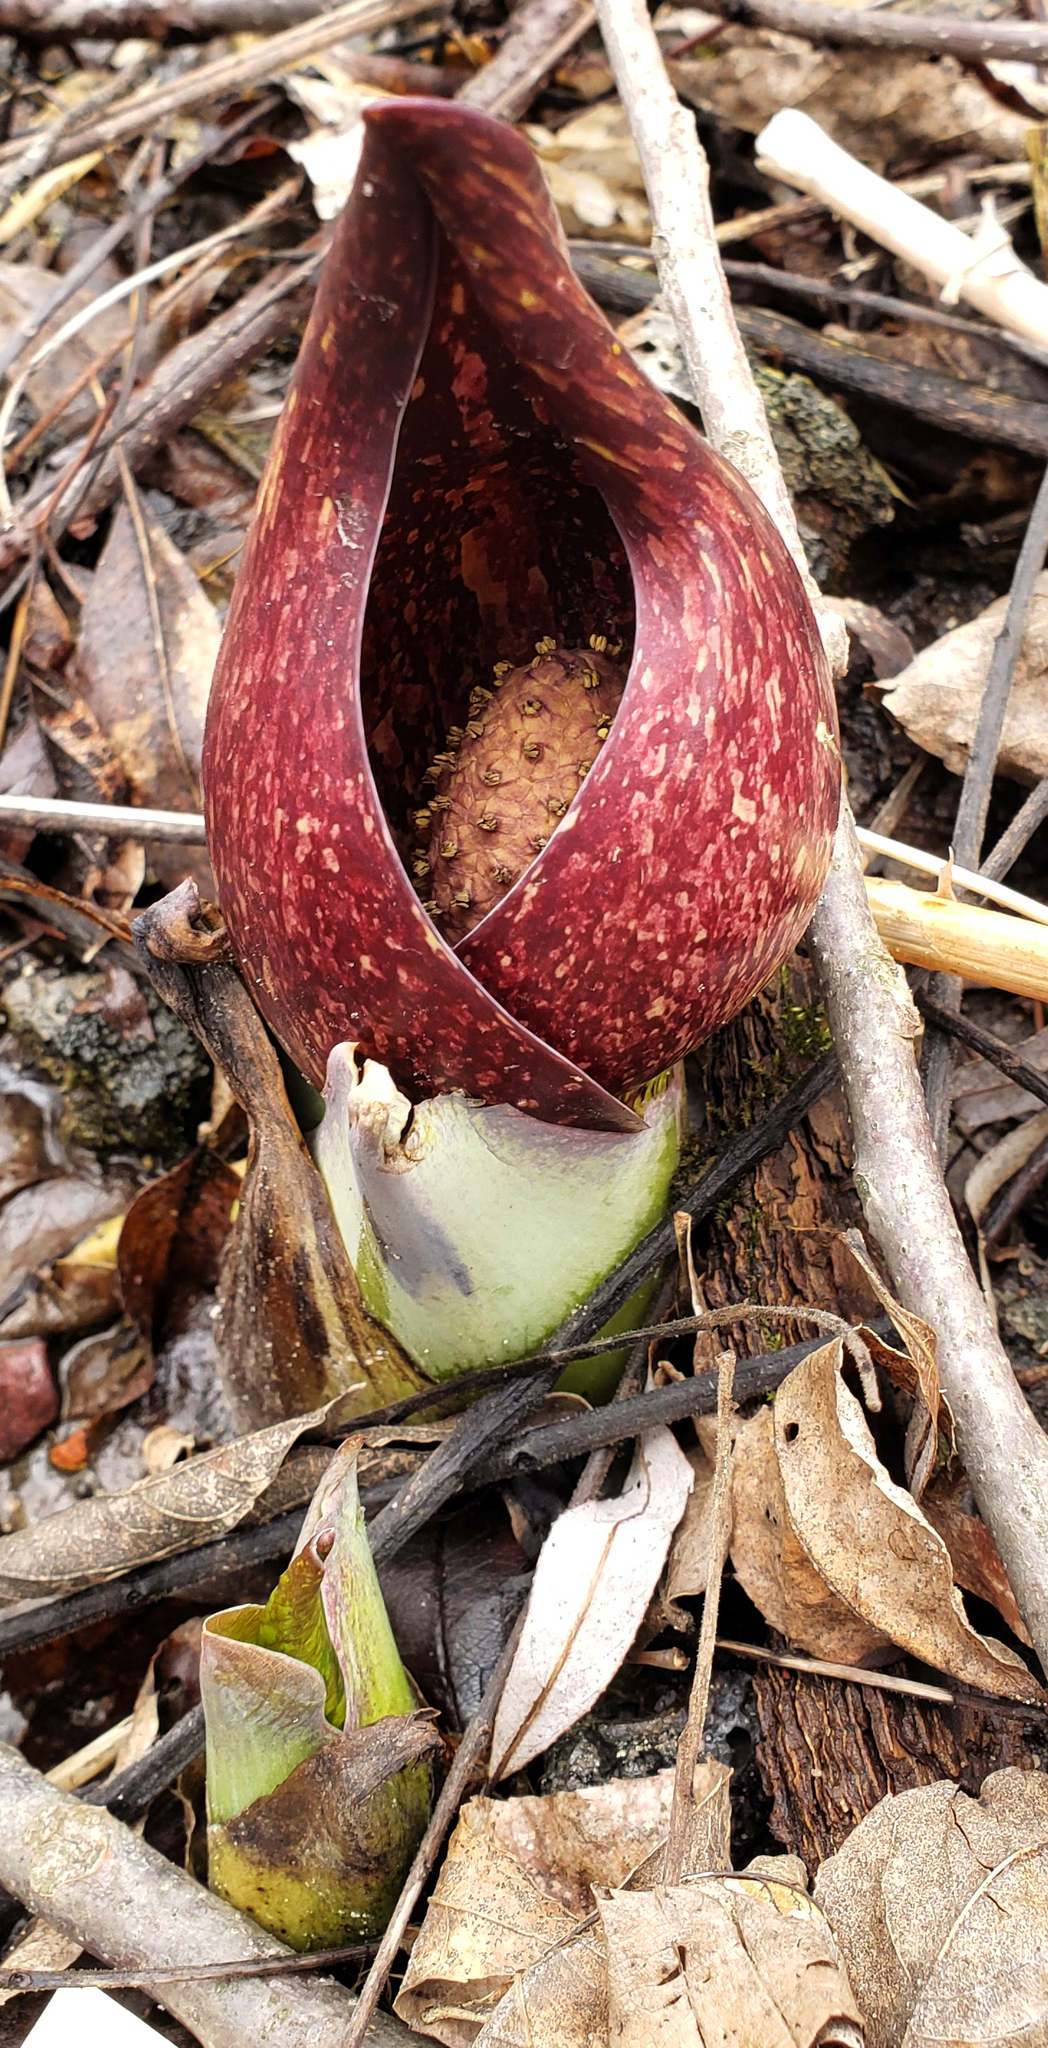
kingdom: Plantae
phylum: Tracheophyta
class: Liliopsida
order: Alismatales
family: Araceae
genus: Symplocarpus
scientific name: Symplocarpus foetidus
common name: Eastern skunk cabbage
